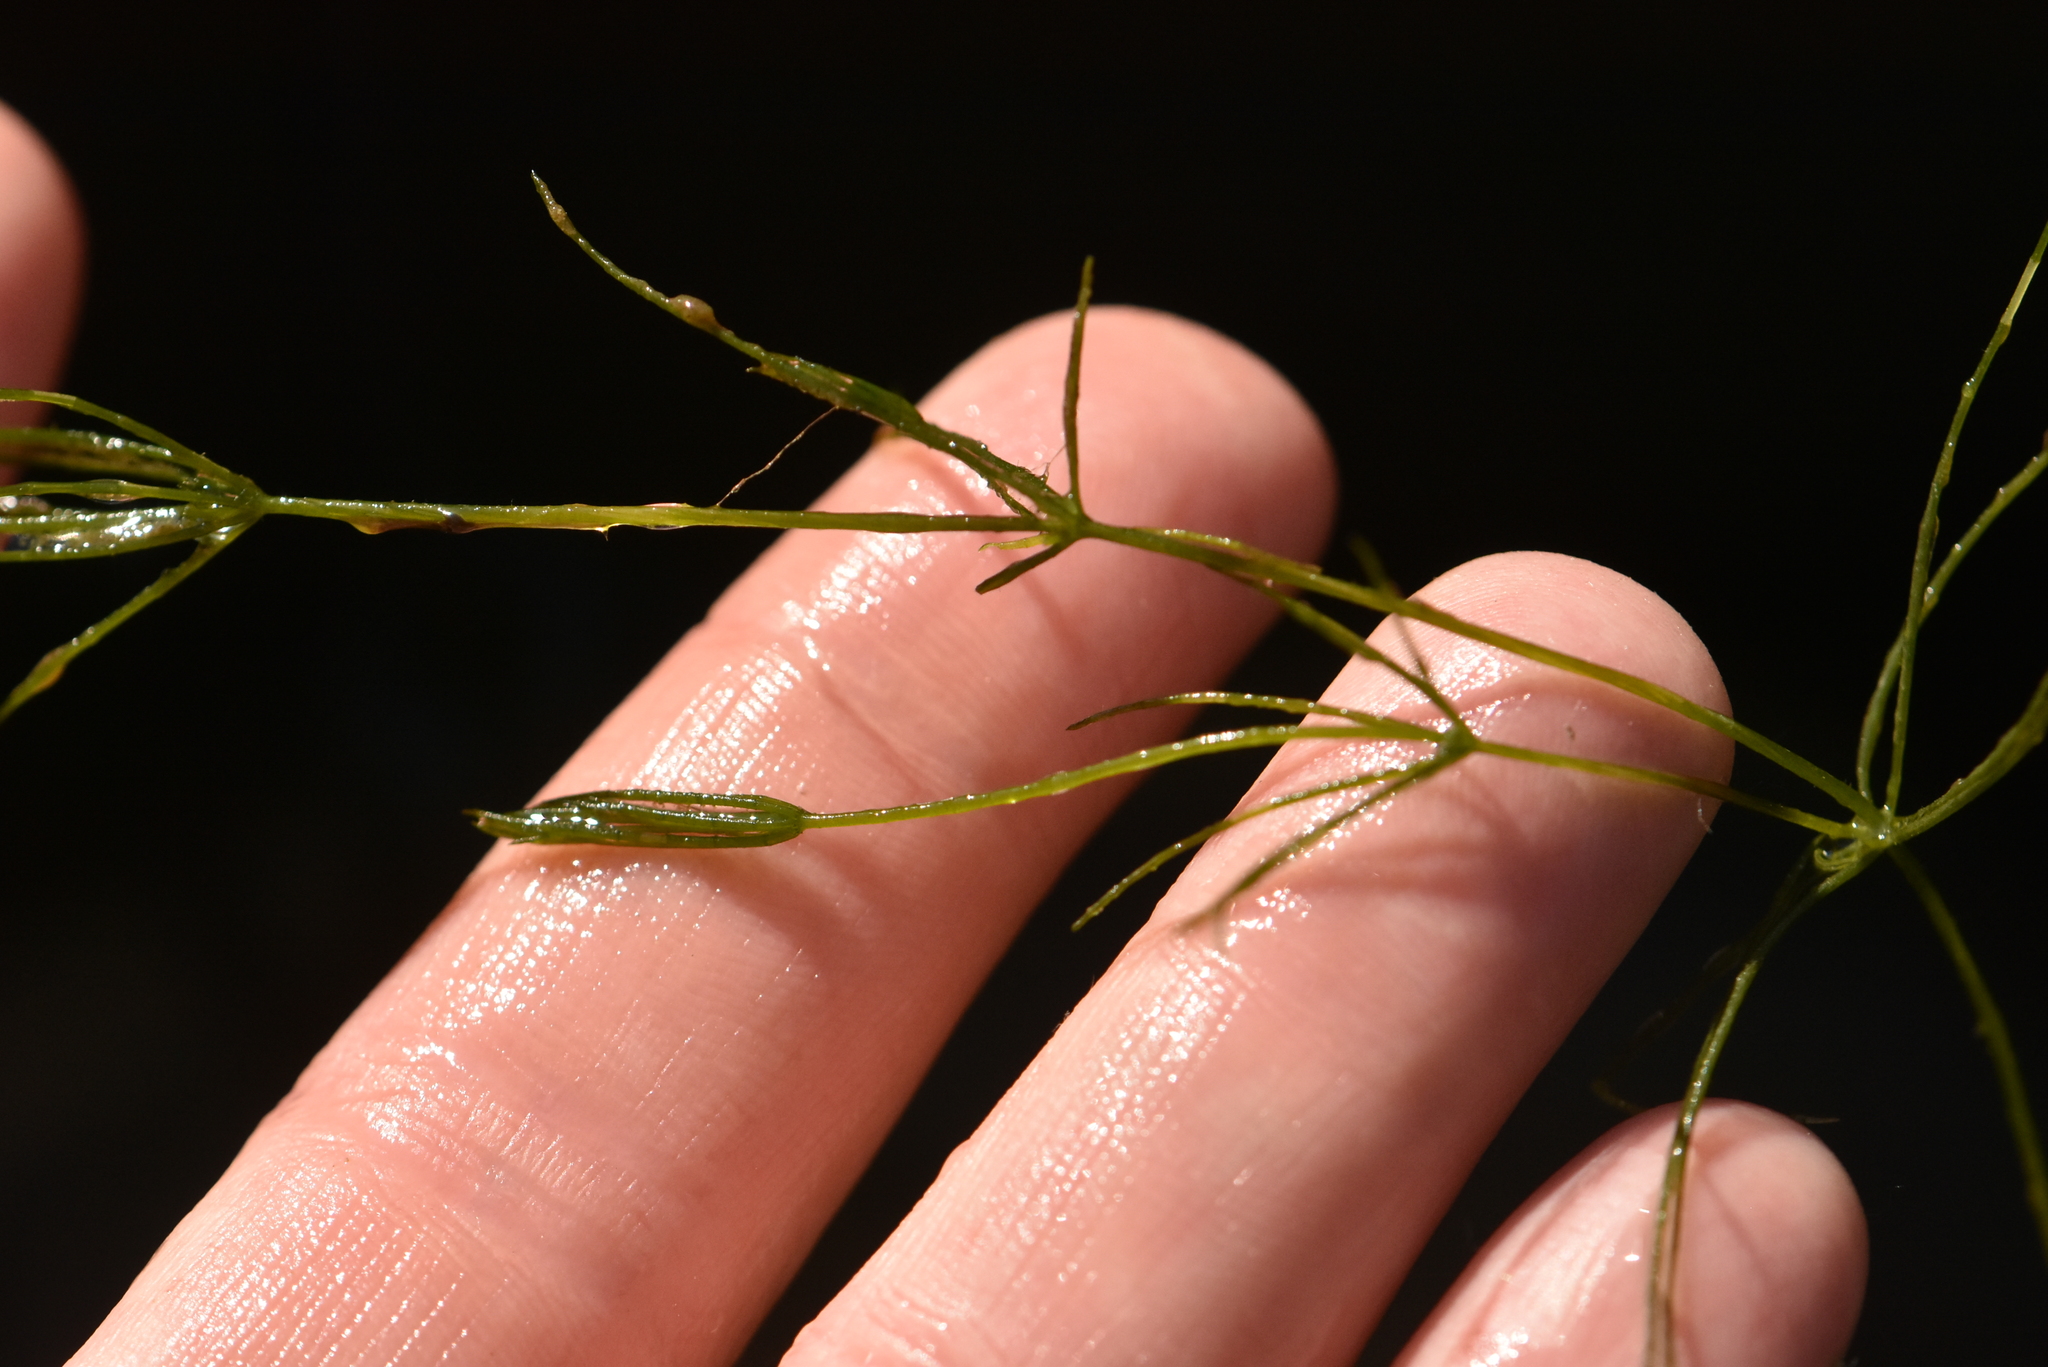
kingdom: Plantae
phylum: Charophyta
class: Charophyceae
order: Charales
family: Characeae
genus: Chara
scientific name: Chara globularis
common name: Fragile stonewort
